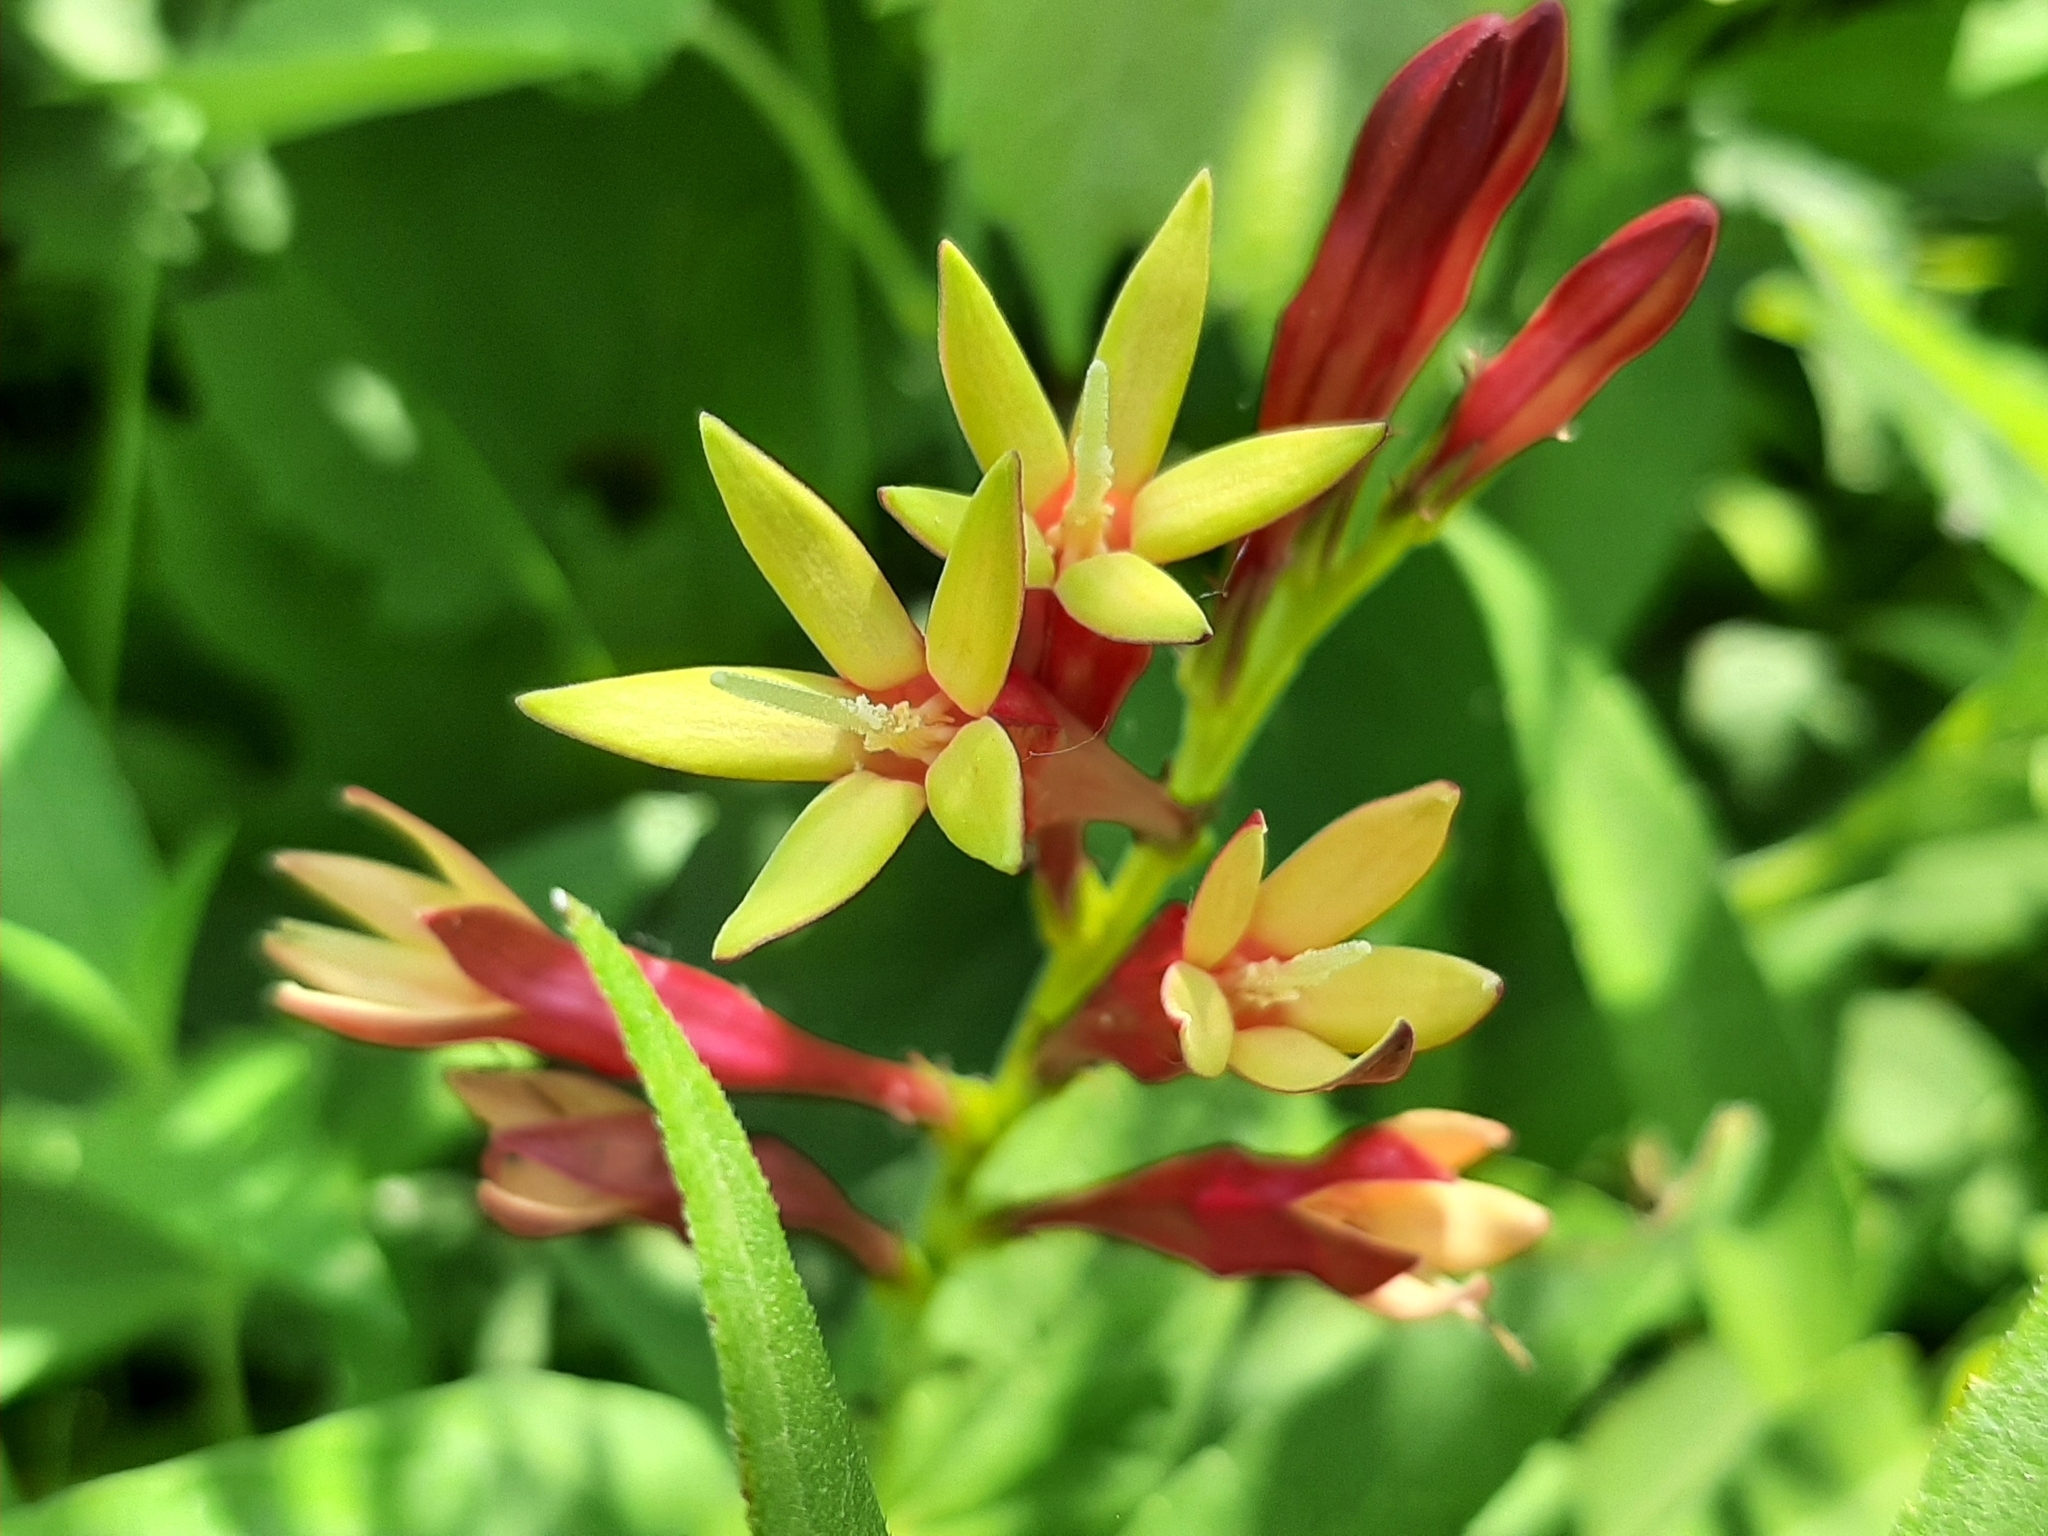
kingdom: Plantae
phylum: Tracheophyta
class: Magnoliopsida
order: Gentianales
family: Loganiaceae
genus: Spigelia
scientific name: Spigelia marilandica
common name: Indian-pink
